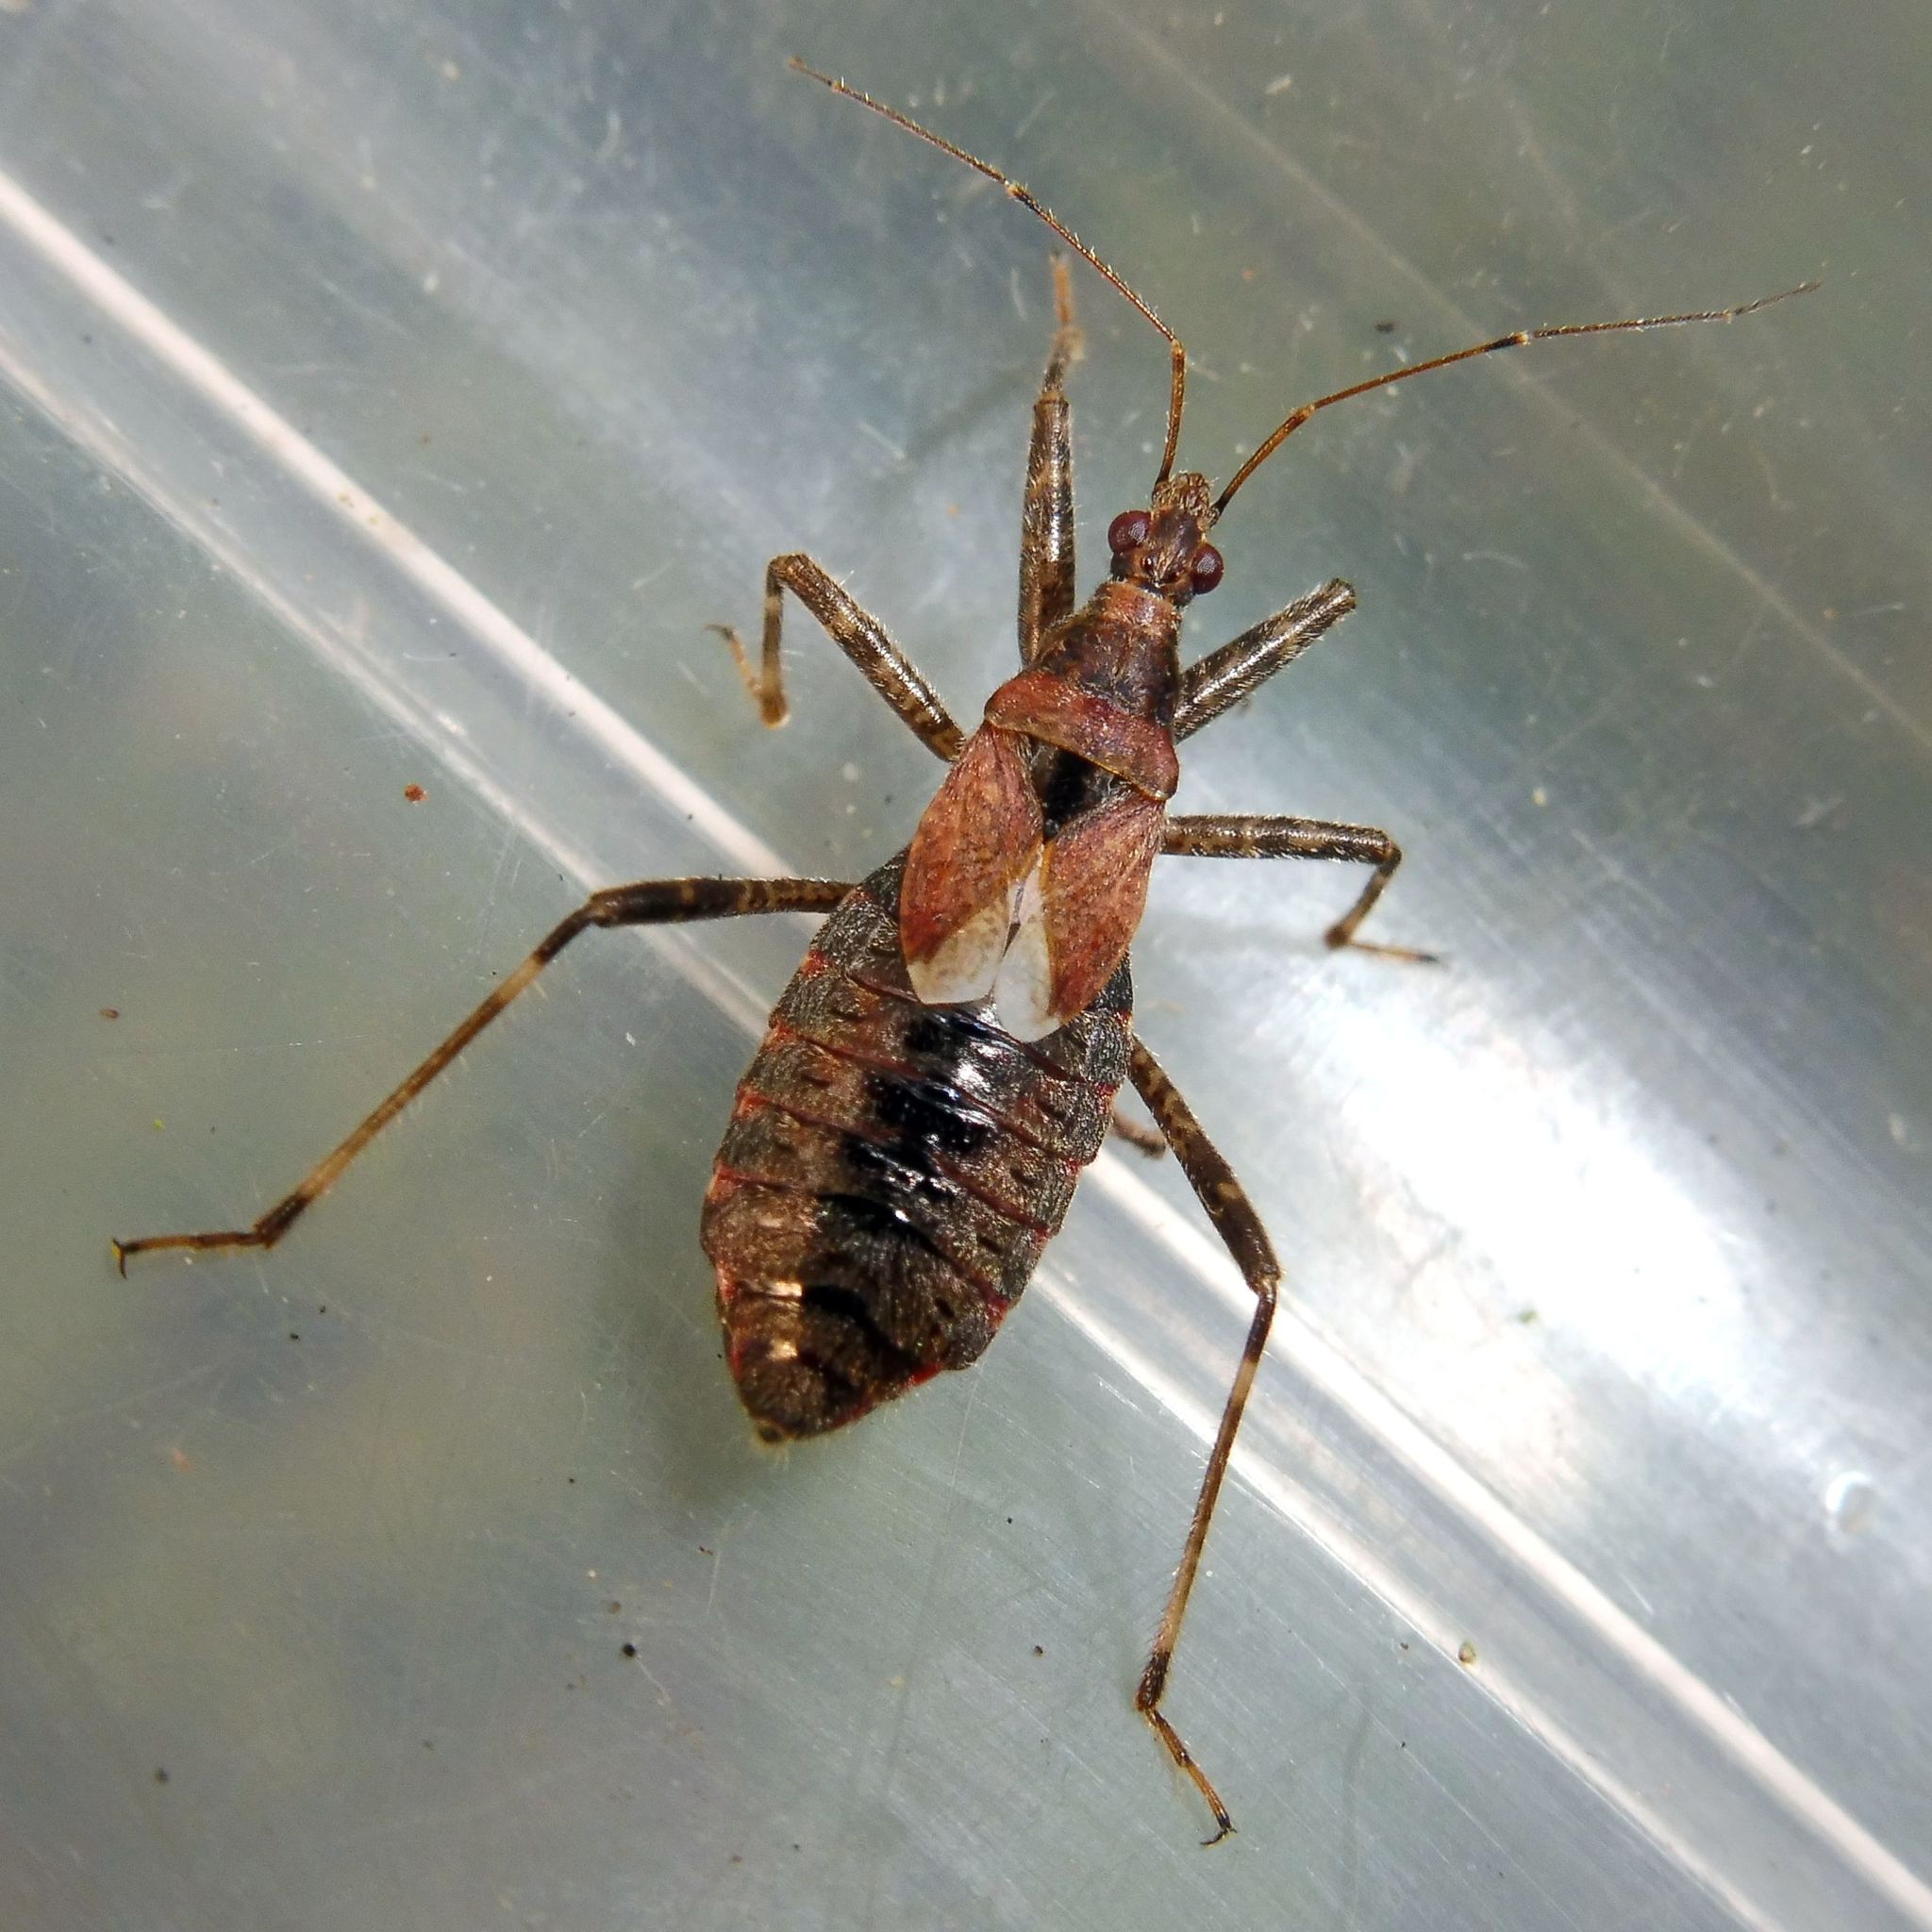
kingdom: Animalia
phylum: Arthropoda
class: Insecta
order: Hemiptera
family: Nabidae
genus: Himacerus
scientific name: Himacerus apterus
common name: Tree damsel bug
